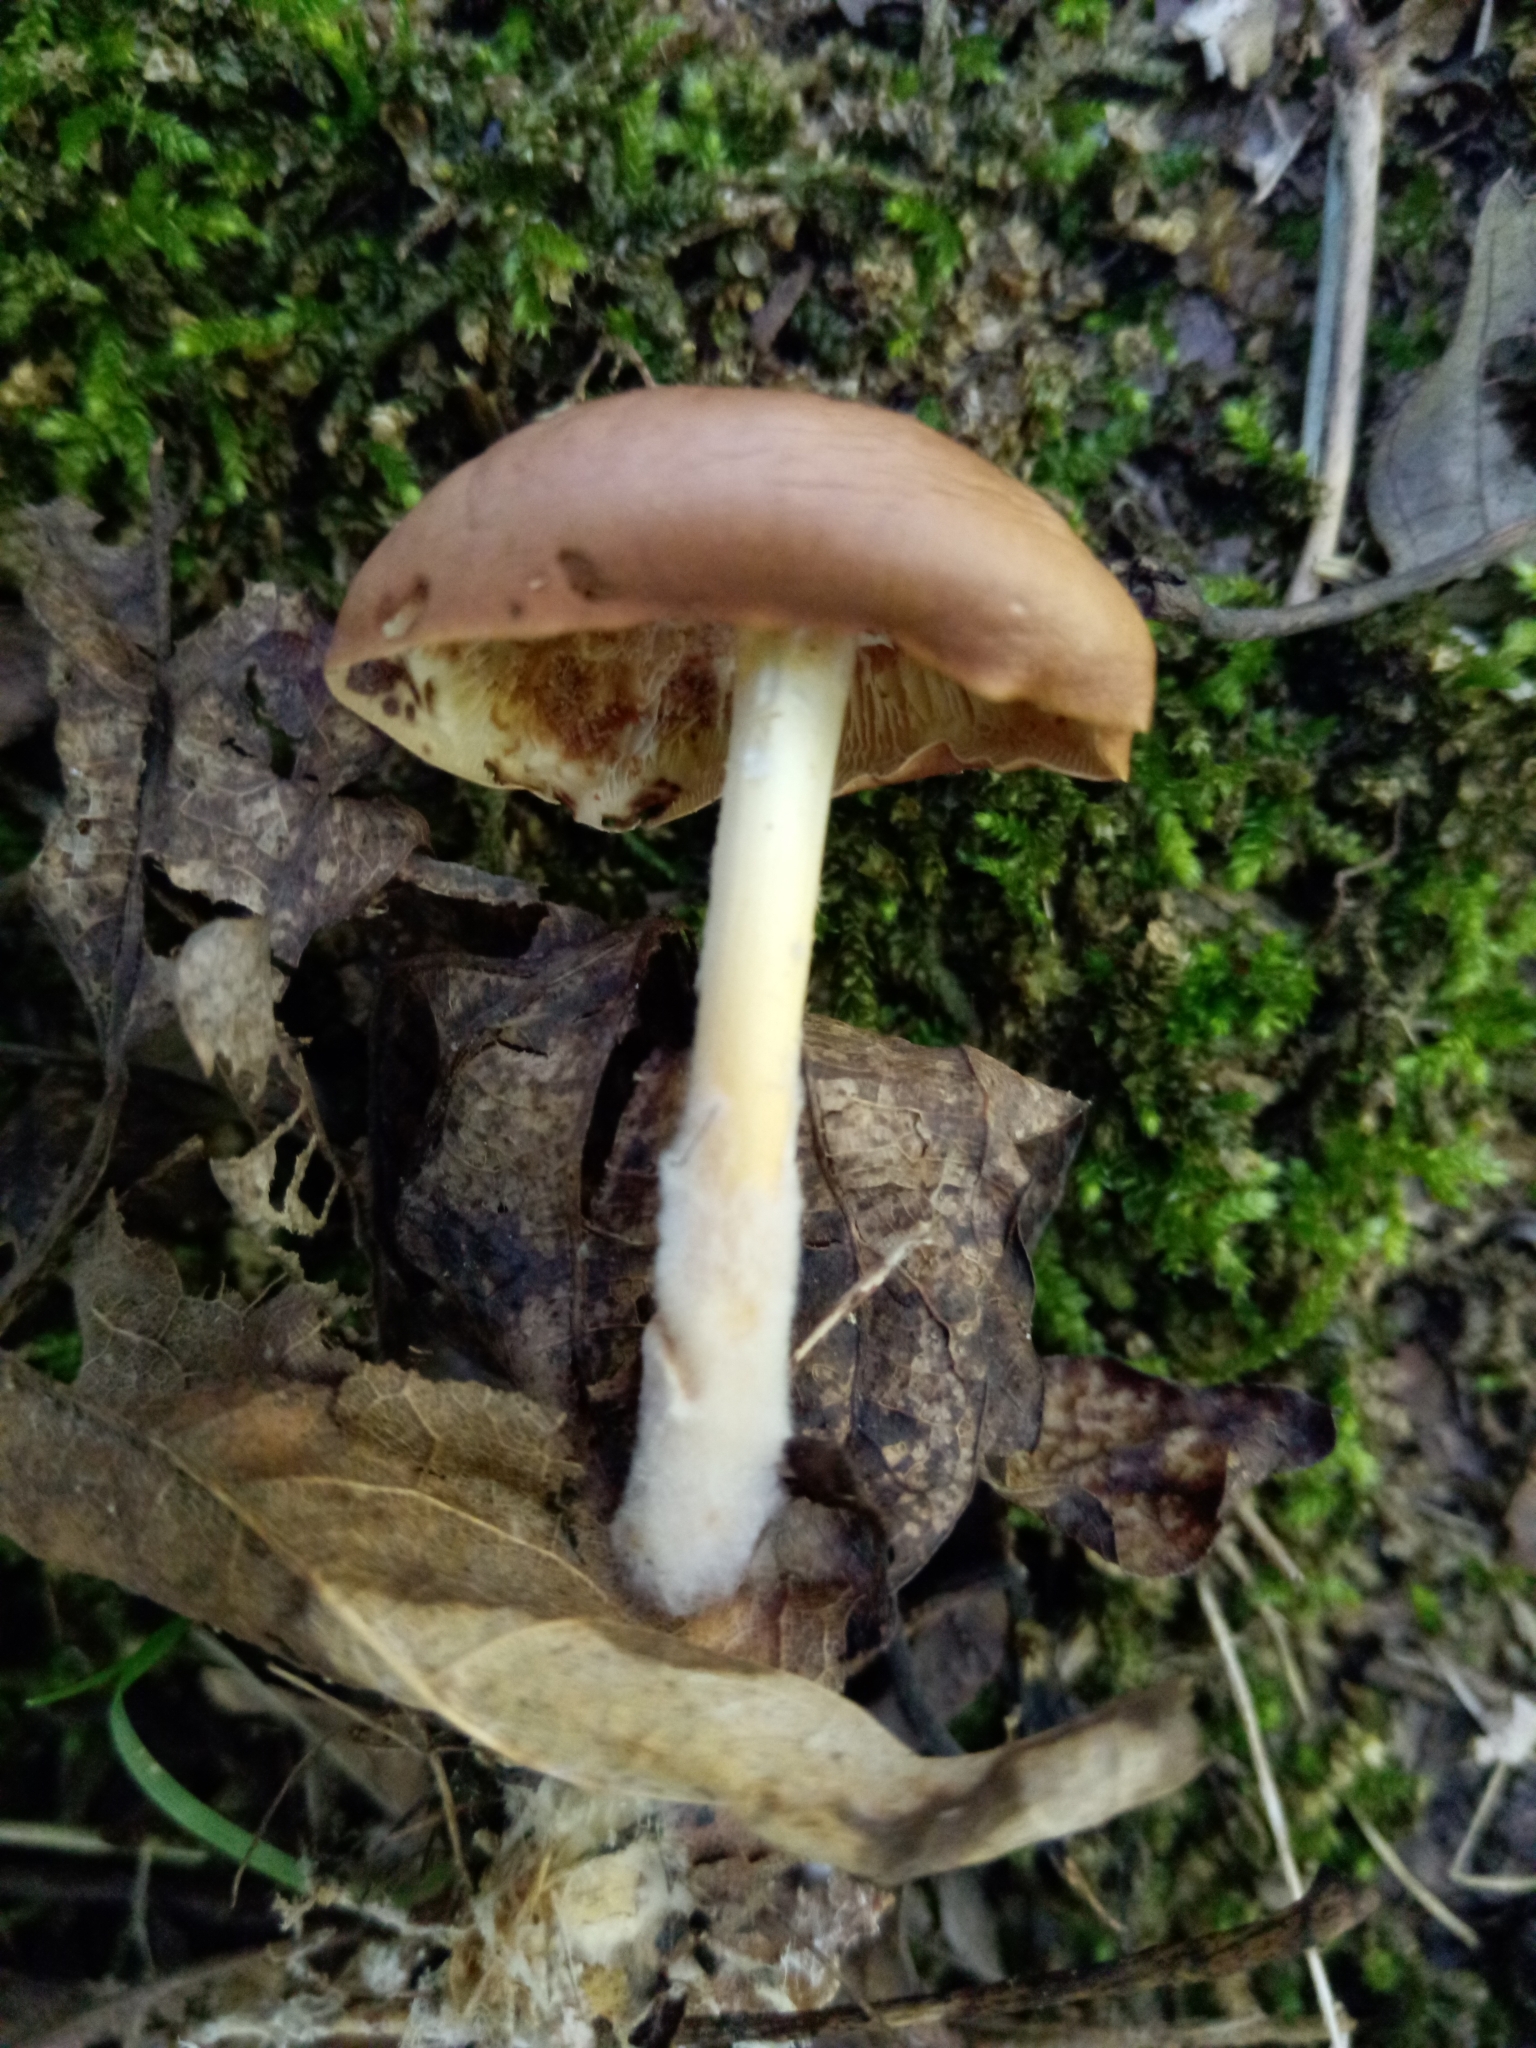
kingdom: Fungi
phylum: Basidiomycota
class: Agaricomycetes
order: Agaricales
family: Omphalotaceae
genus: Gymnopus
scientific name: Gymnopus dryophilus
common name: Penny top
